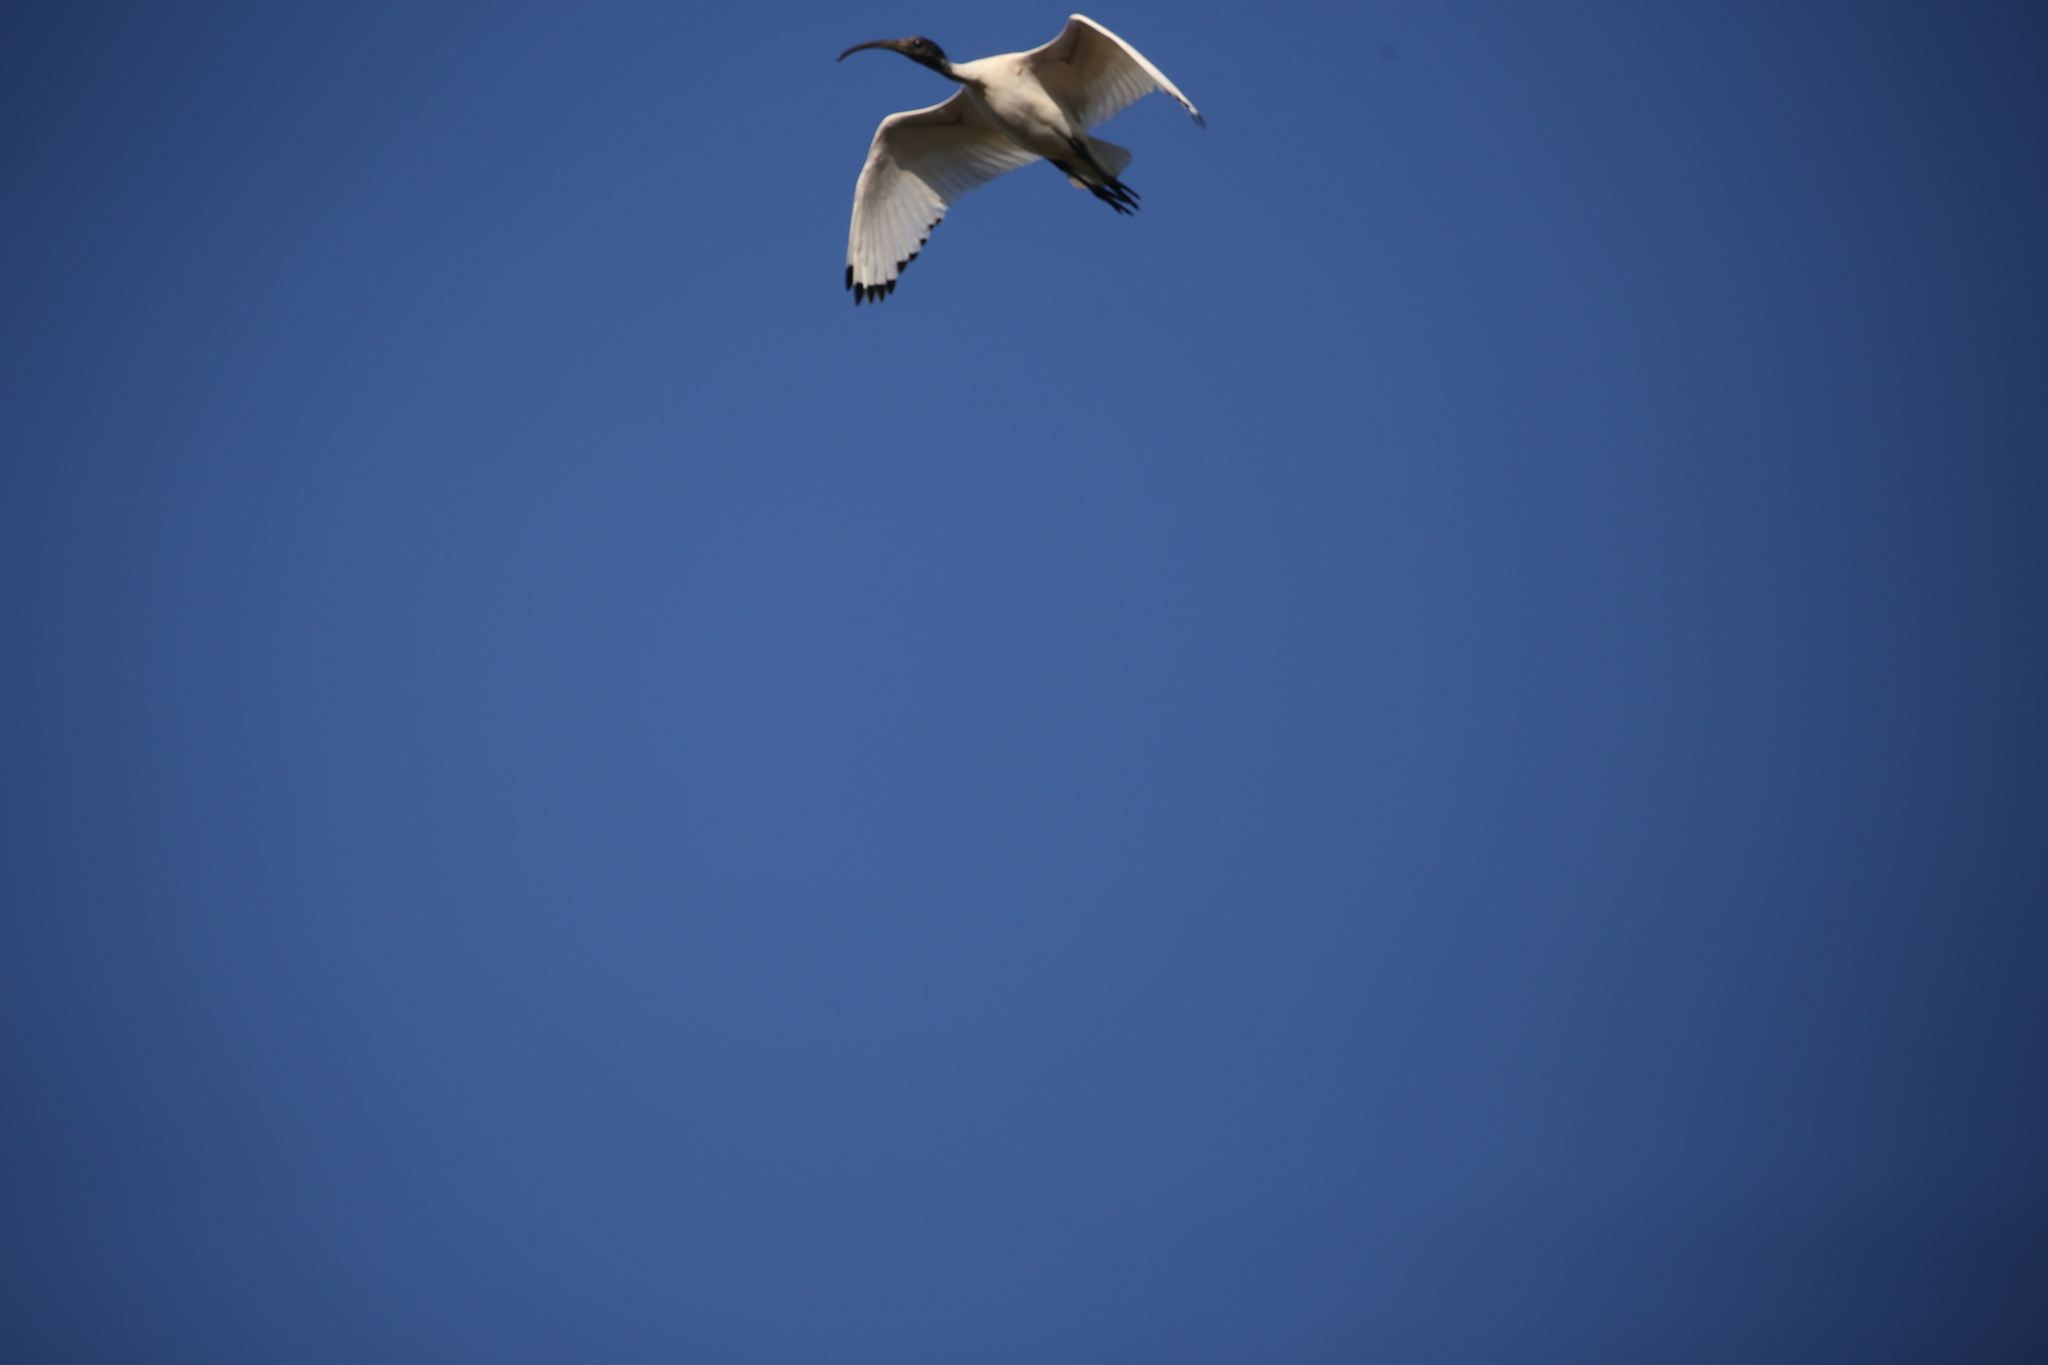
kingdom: Animalia
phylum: Chordata
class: Aves
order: Pelecaniformes
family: Threskiornithidae
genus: Threskiornis
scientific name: Threskiornis molucca
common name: Australian white ibis
